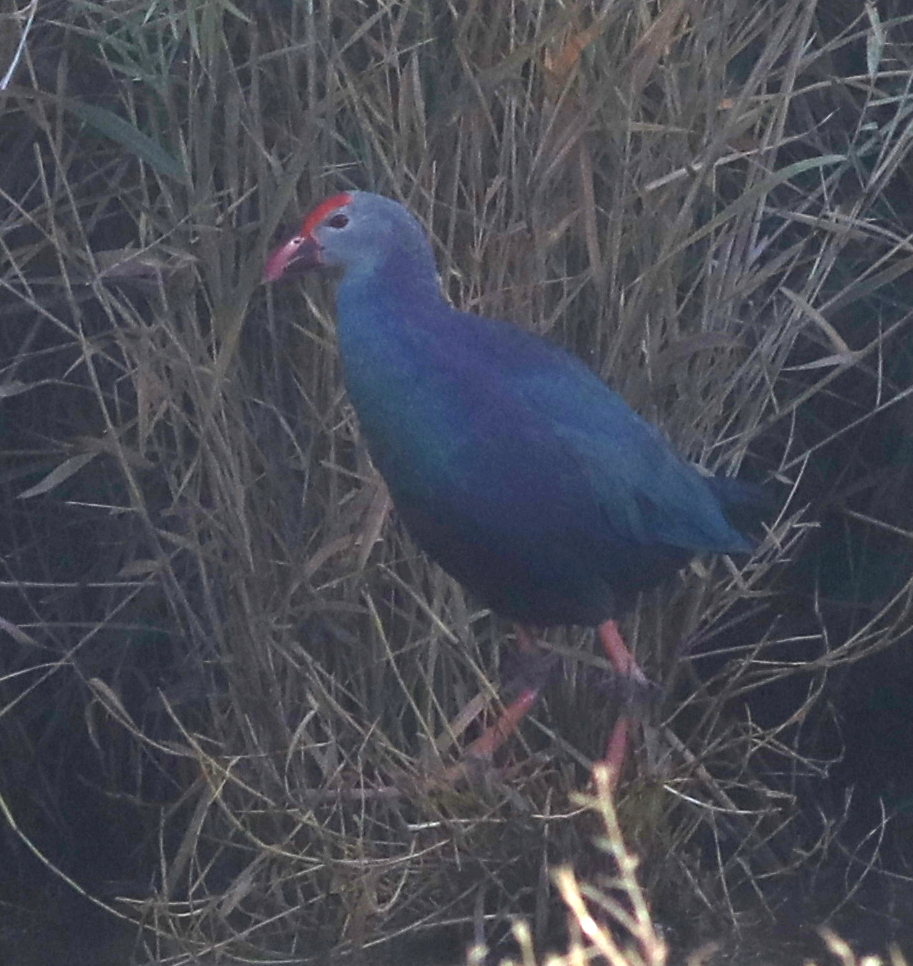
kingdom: Animalia
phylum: Chordata
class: Aves
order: Gruiformes
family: Rallidae
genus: Porphyrio
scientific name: Porphyrio porphyrio
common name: Purple swamphen
